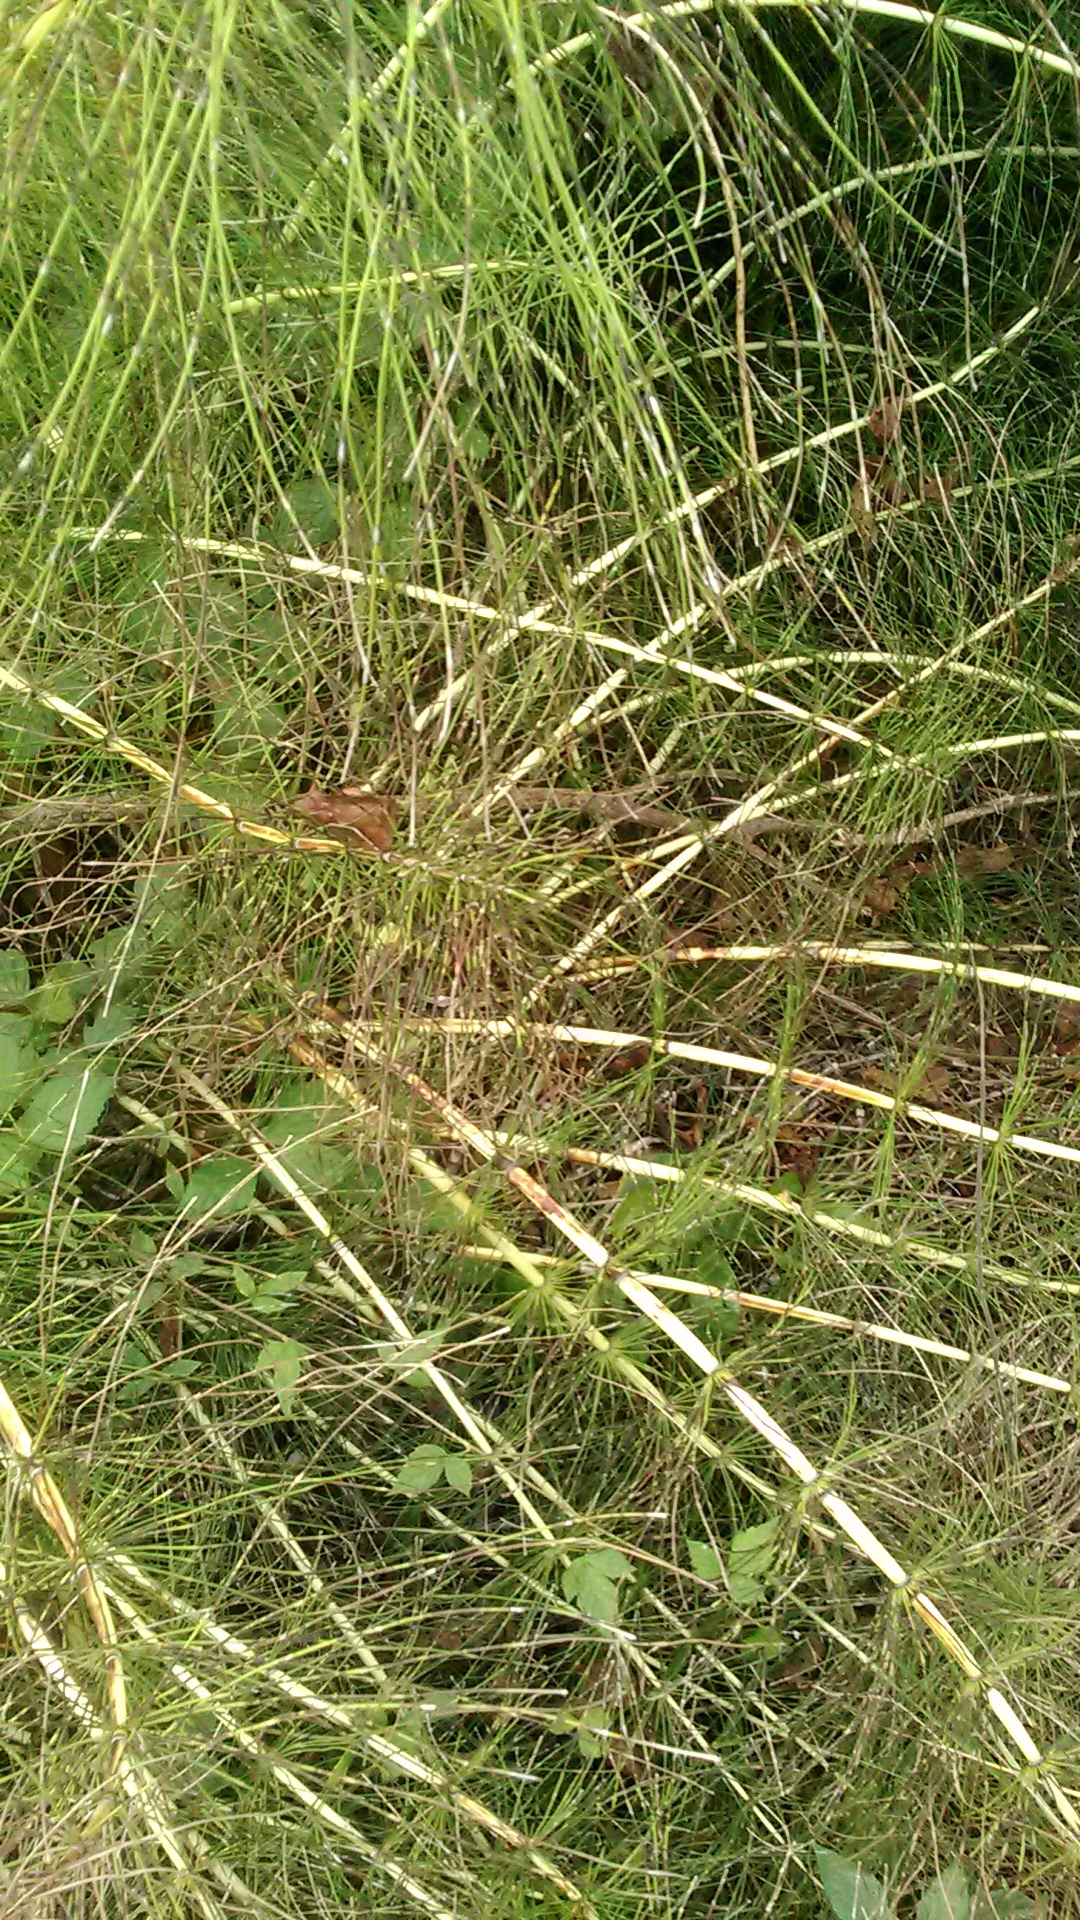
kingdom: Plantae
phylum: Tracheophyta
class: Polypodiopsida
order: Equisetales
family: Equisetaceae
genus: Equisetum
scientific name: Equisetum telmateia
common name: Great horsetail
